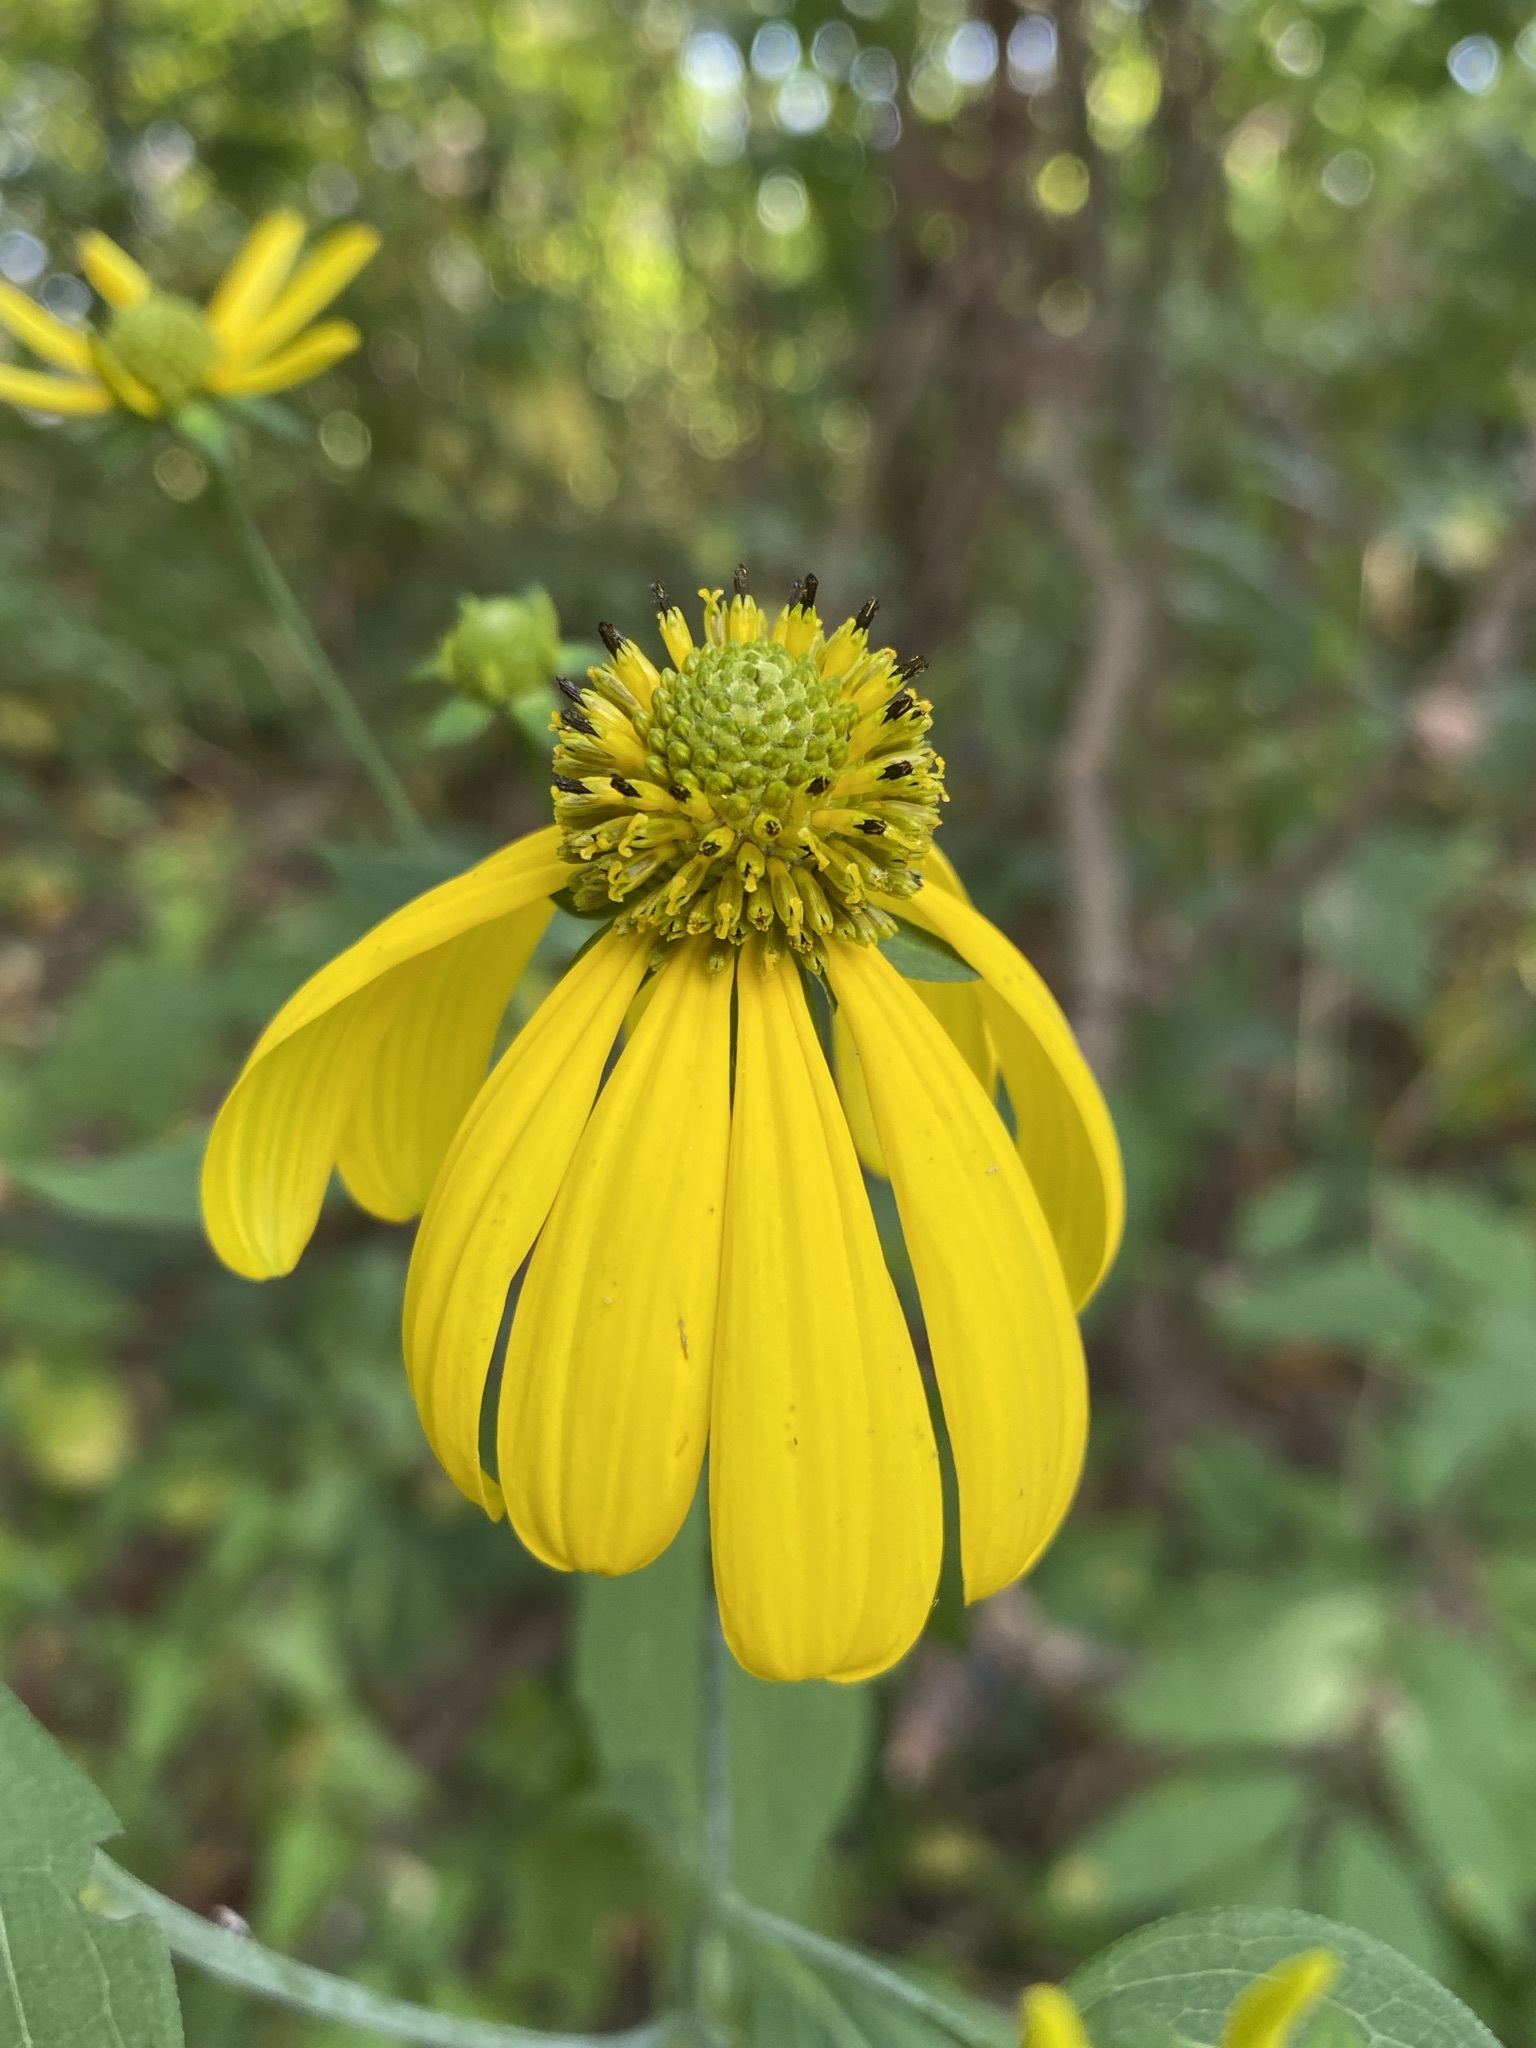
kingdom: Plantae
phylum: Tracheophyta
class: Magnoliopsida
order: Asterales
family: Asteraceae
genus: Rudbeckia
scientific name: Rudbeckia laciniata
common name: Coneflower
